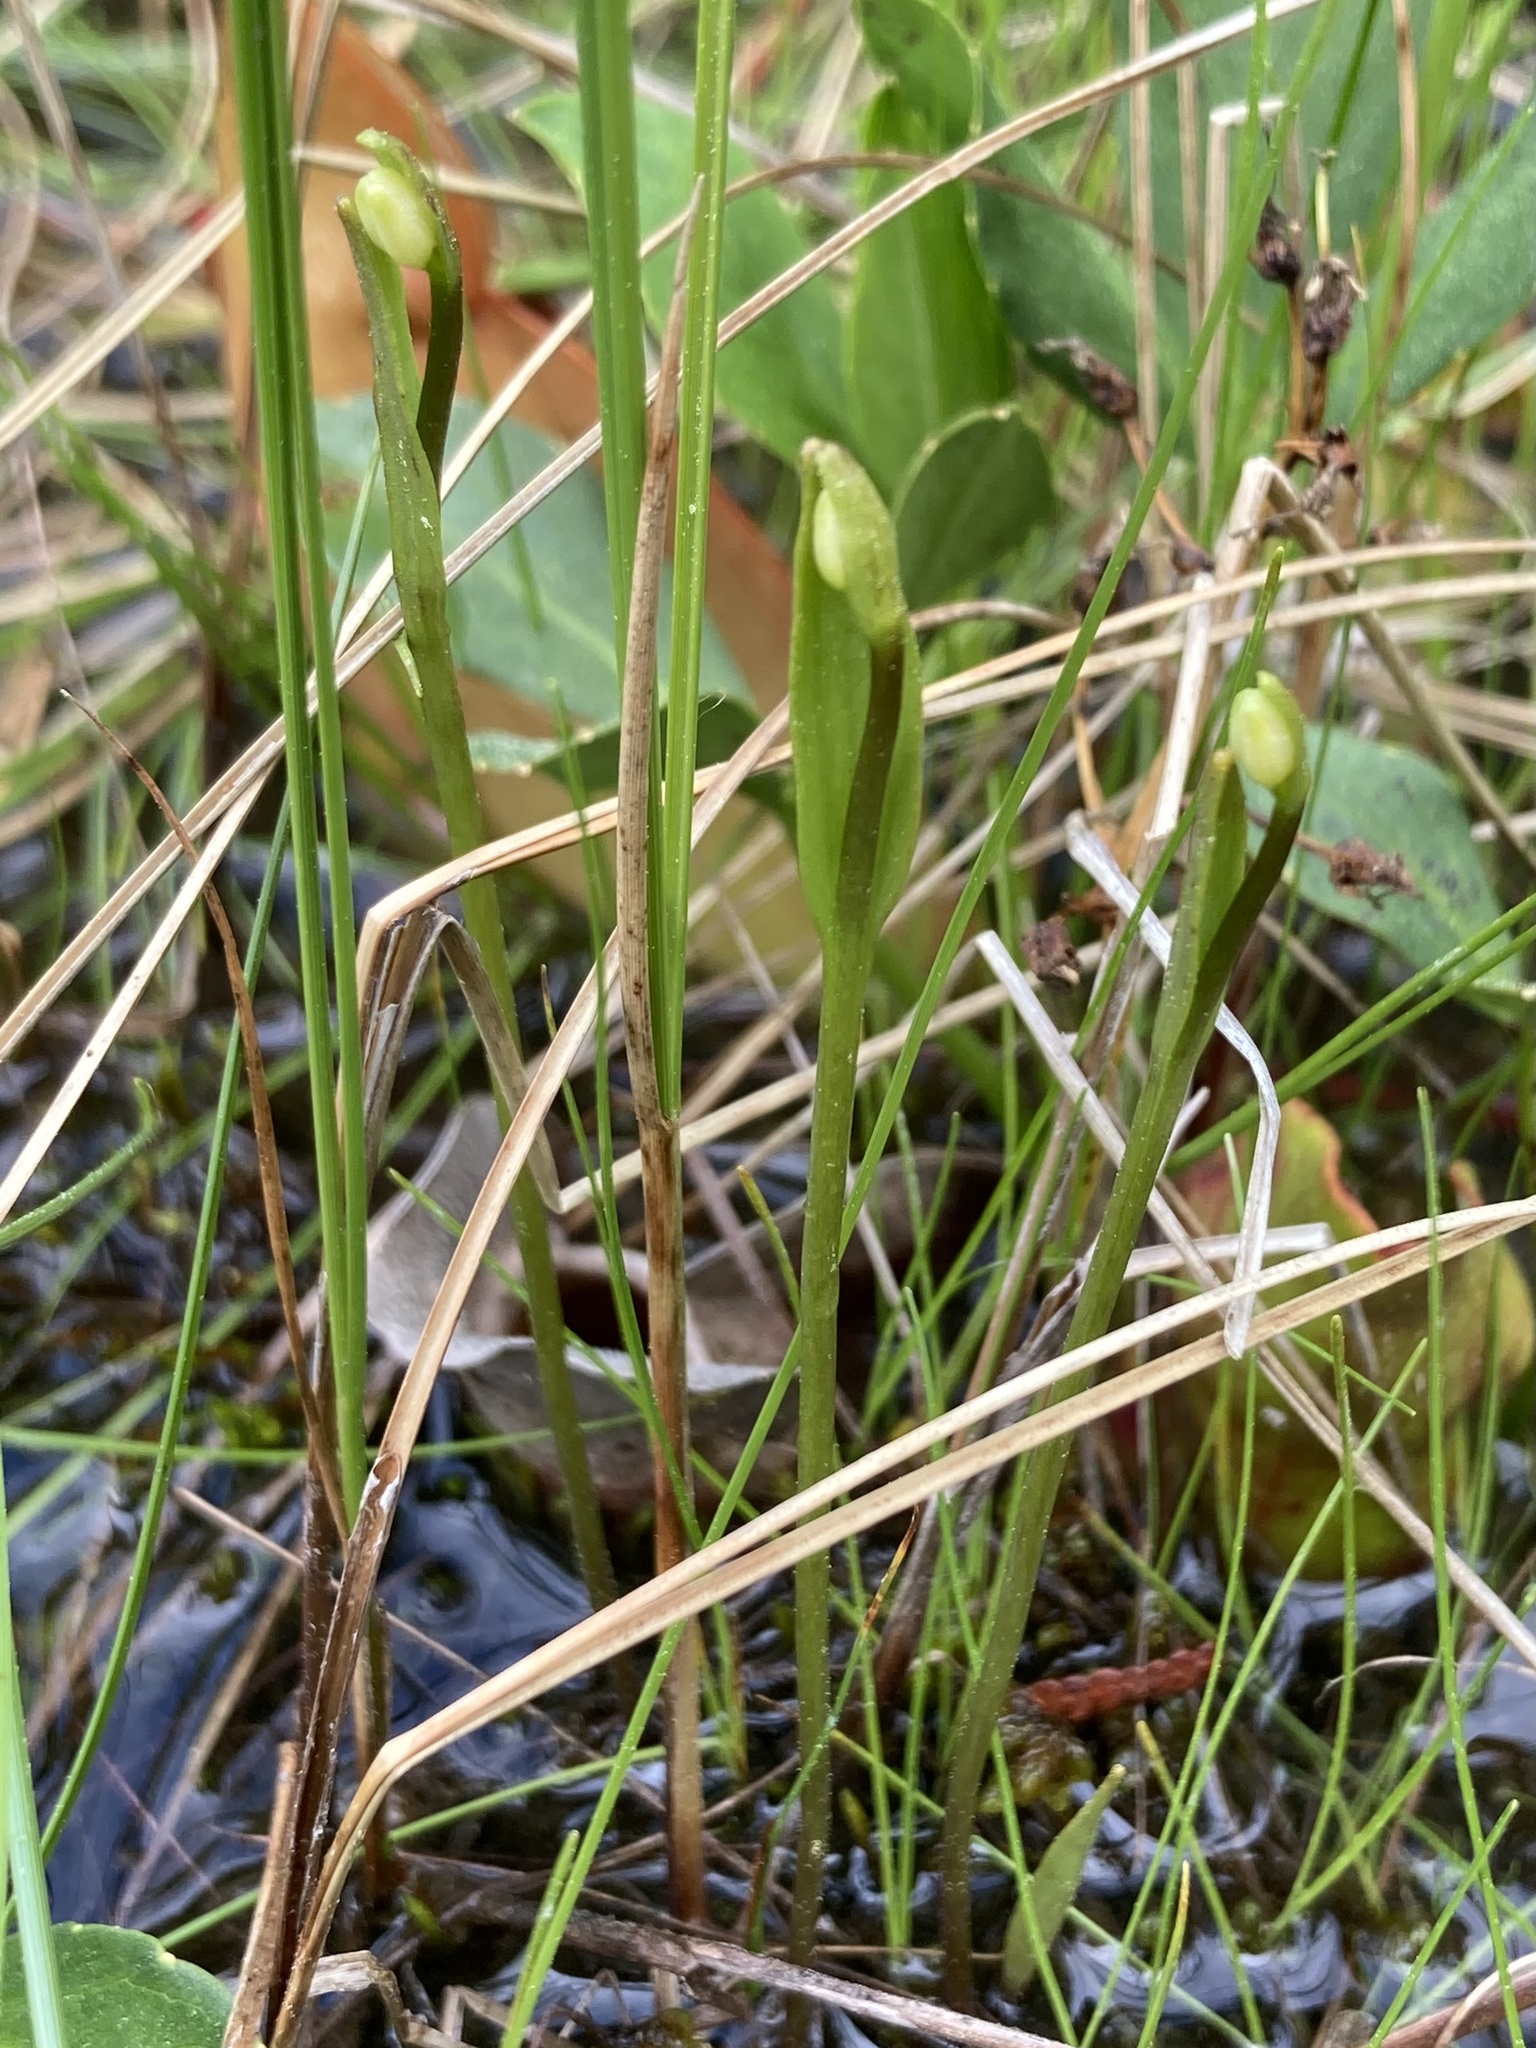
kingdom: Plantae
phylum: Tracheophyta
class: Liliopsida
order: Asparagales
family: Orchidaceae
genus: Pogonia
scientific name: Pogonia ophioglossoides
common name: Rose pogonia
